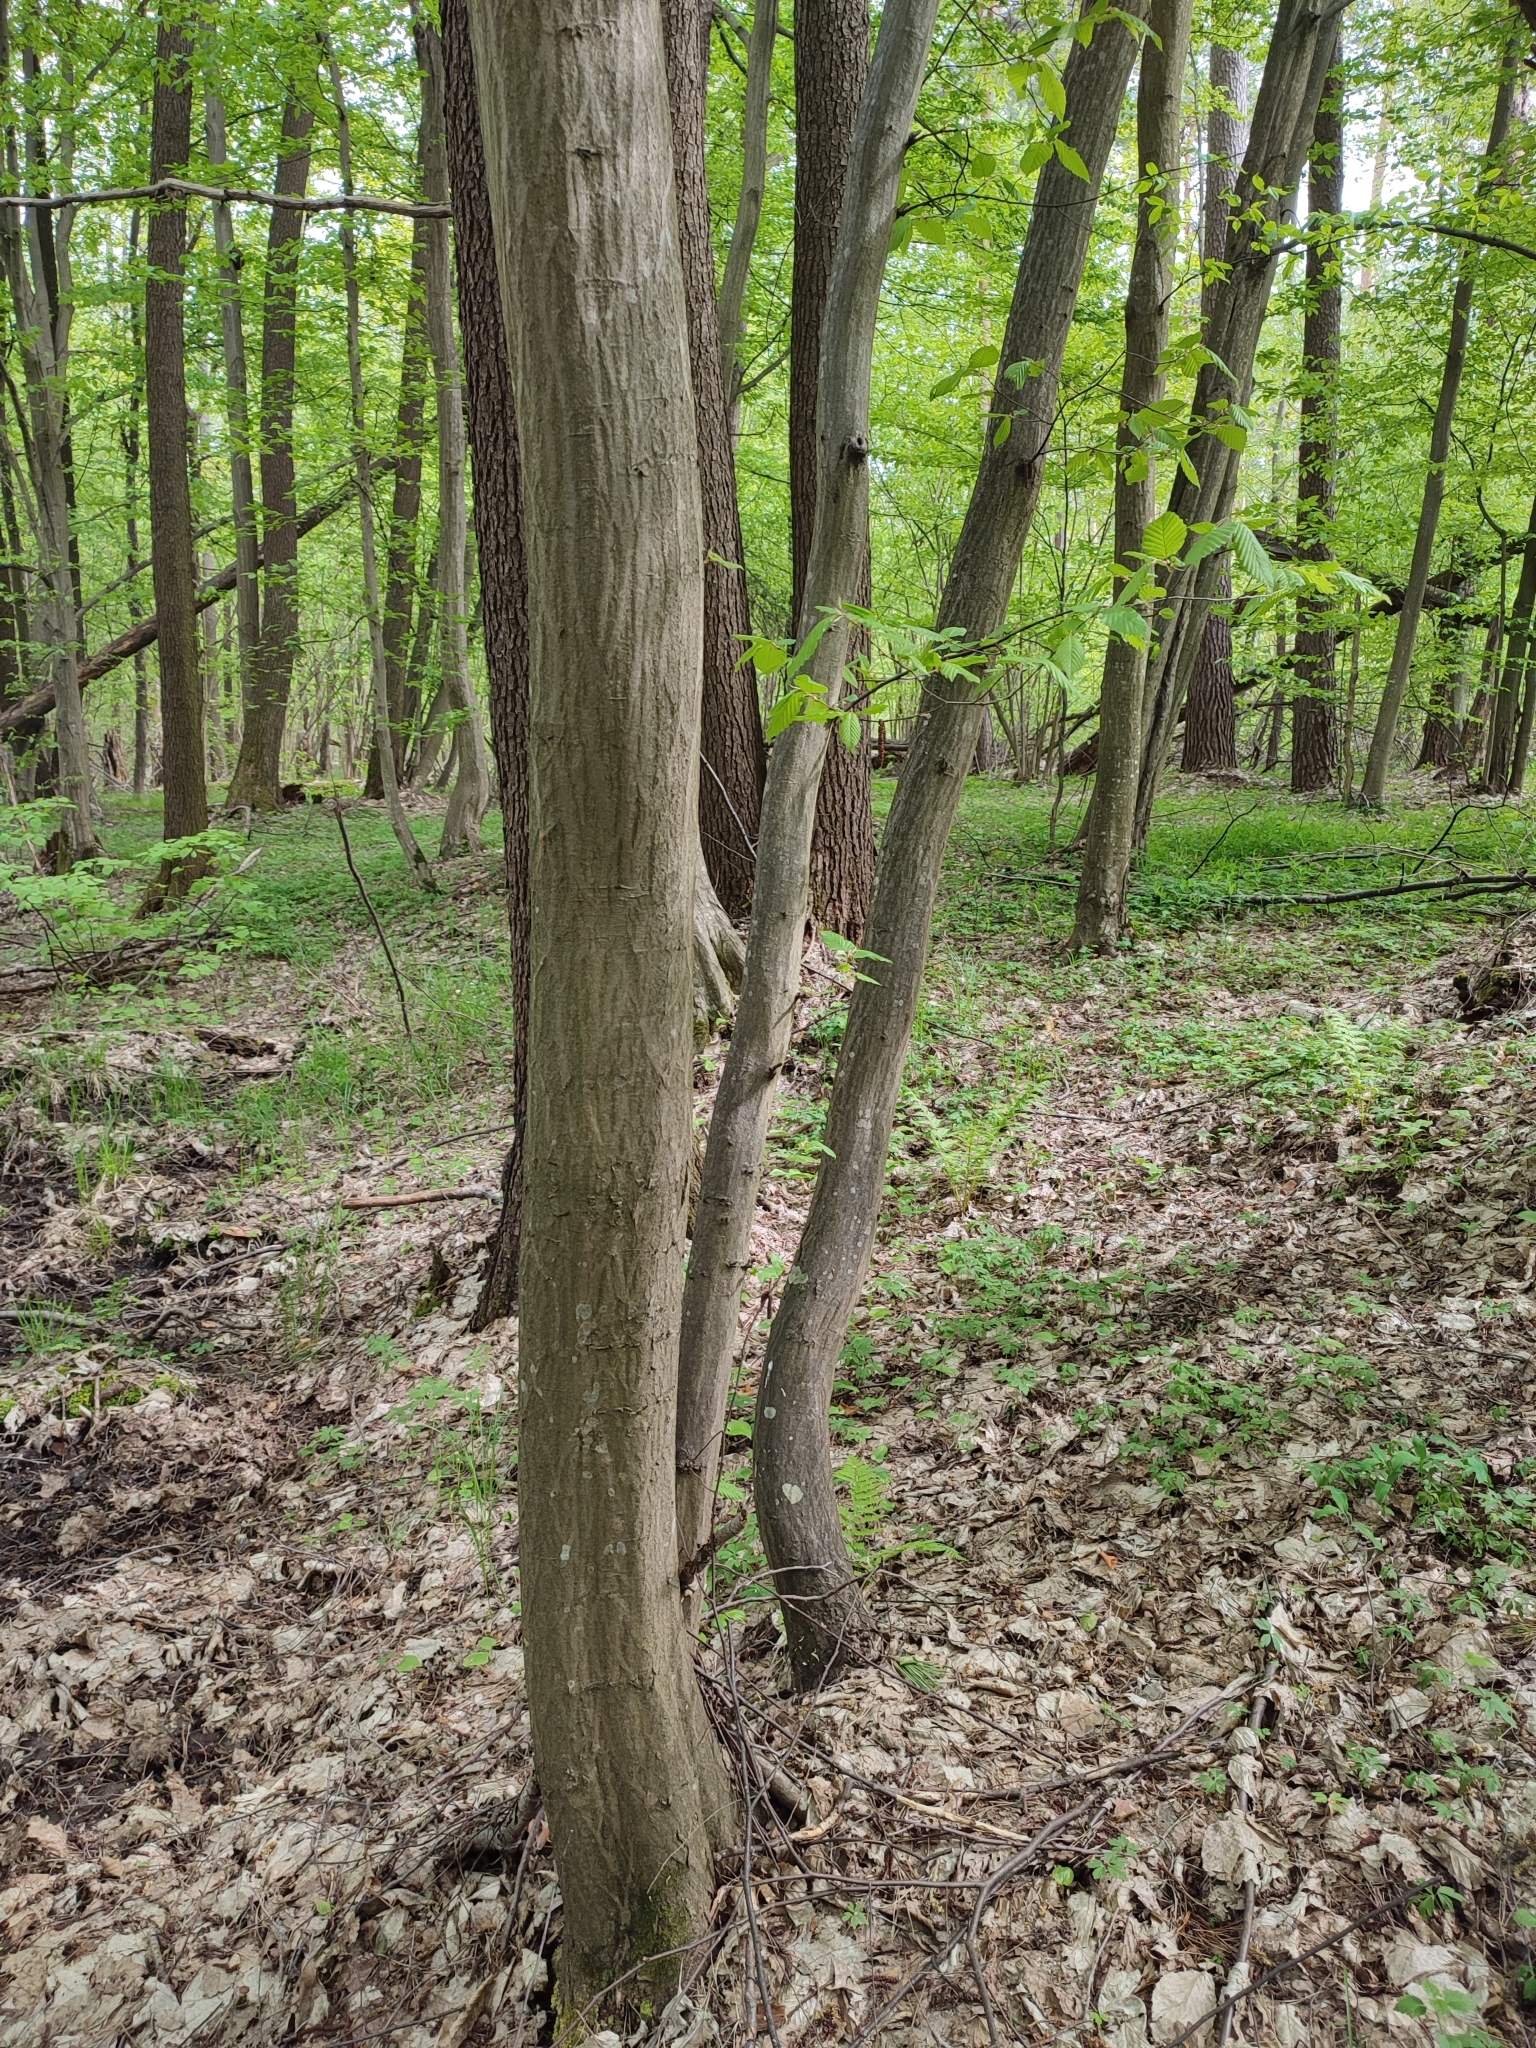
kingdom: Plantae
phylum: Tracheophyta
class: Magnoliopsida
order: Fagales
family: Betulaceae
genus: Carpinus
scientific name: Carpinus betulus
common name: Hornbeam
